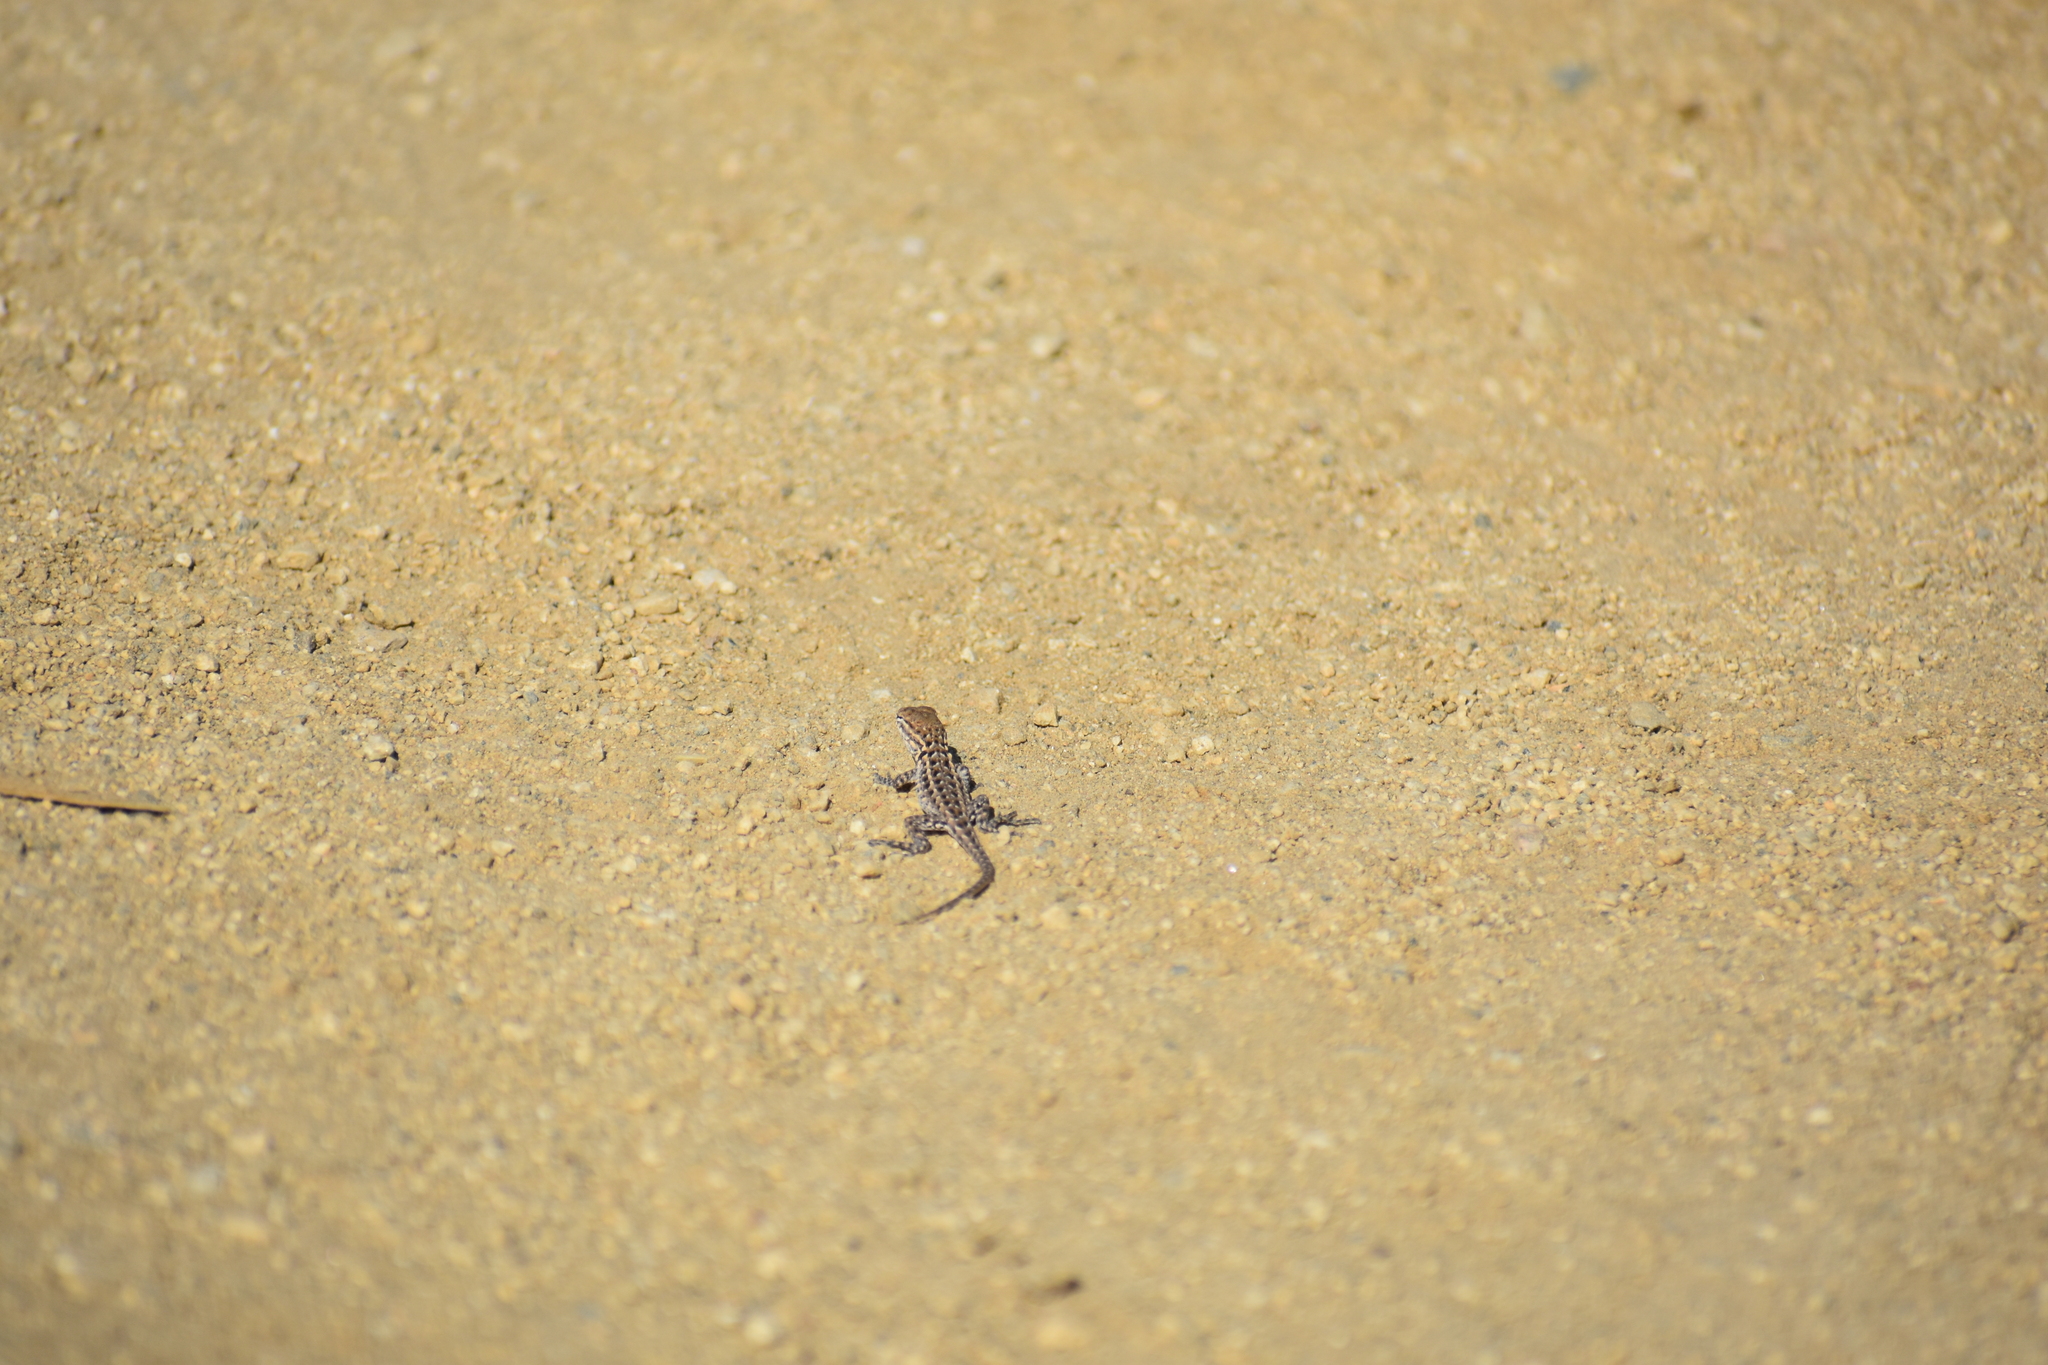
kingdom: Animalia
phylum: Chordata
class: Squamata
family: Phrynosomatidae
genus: Uta
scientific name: Uta stansburiana
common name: Side-blotched lizard
